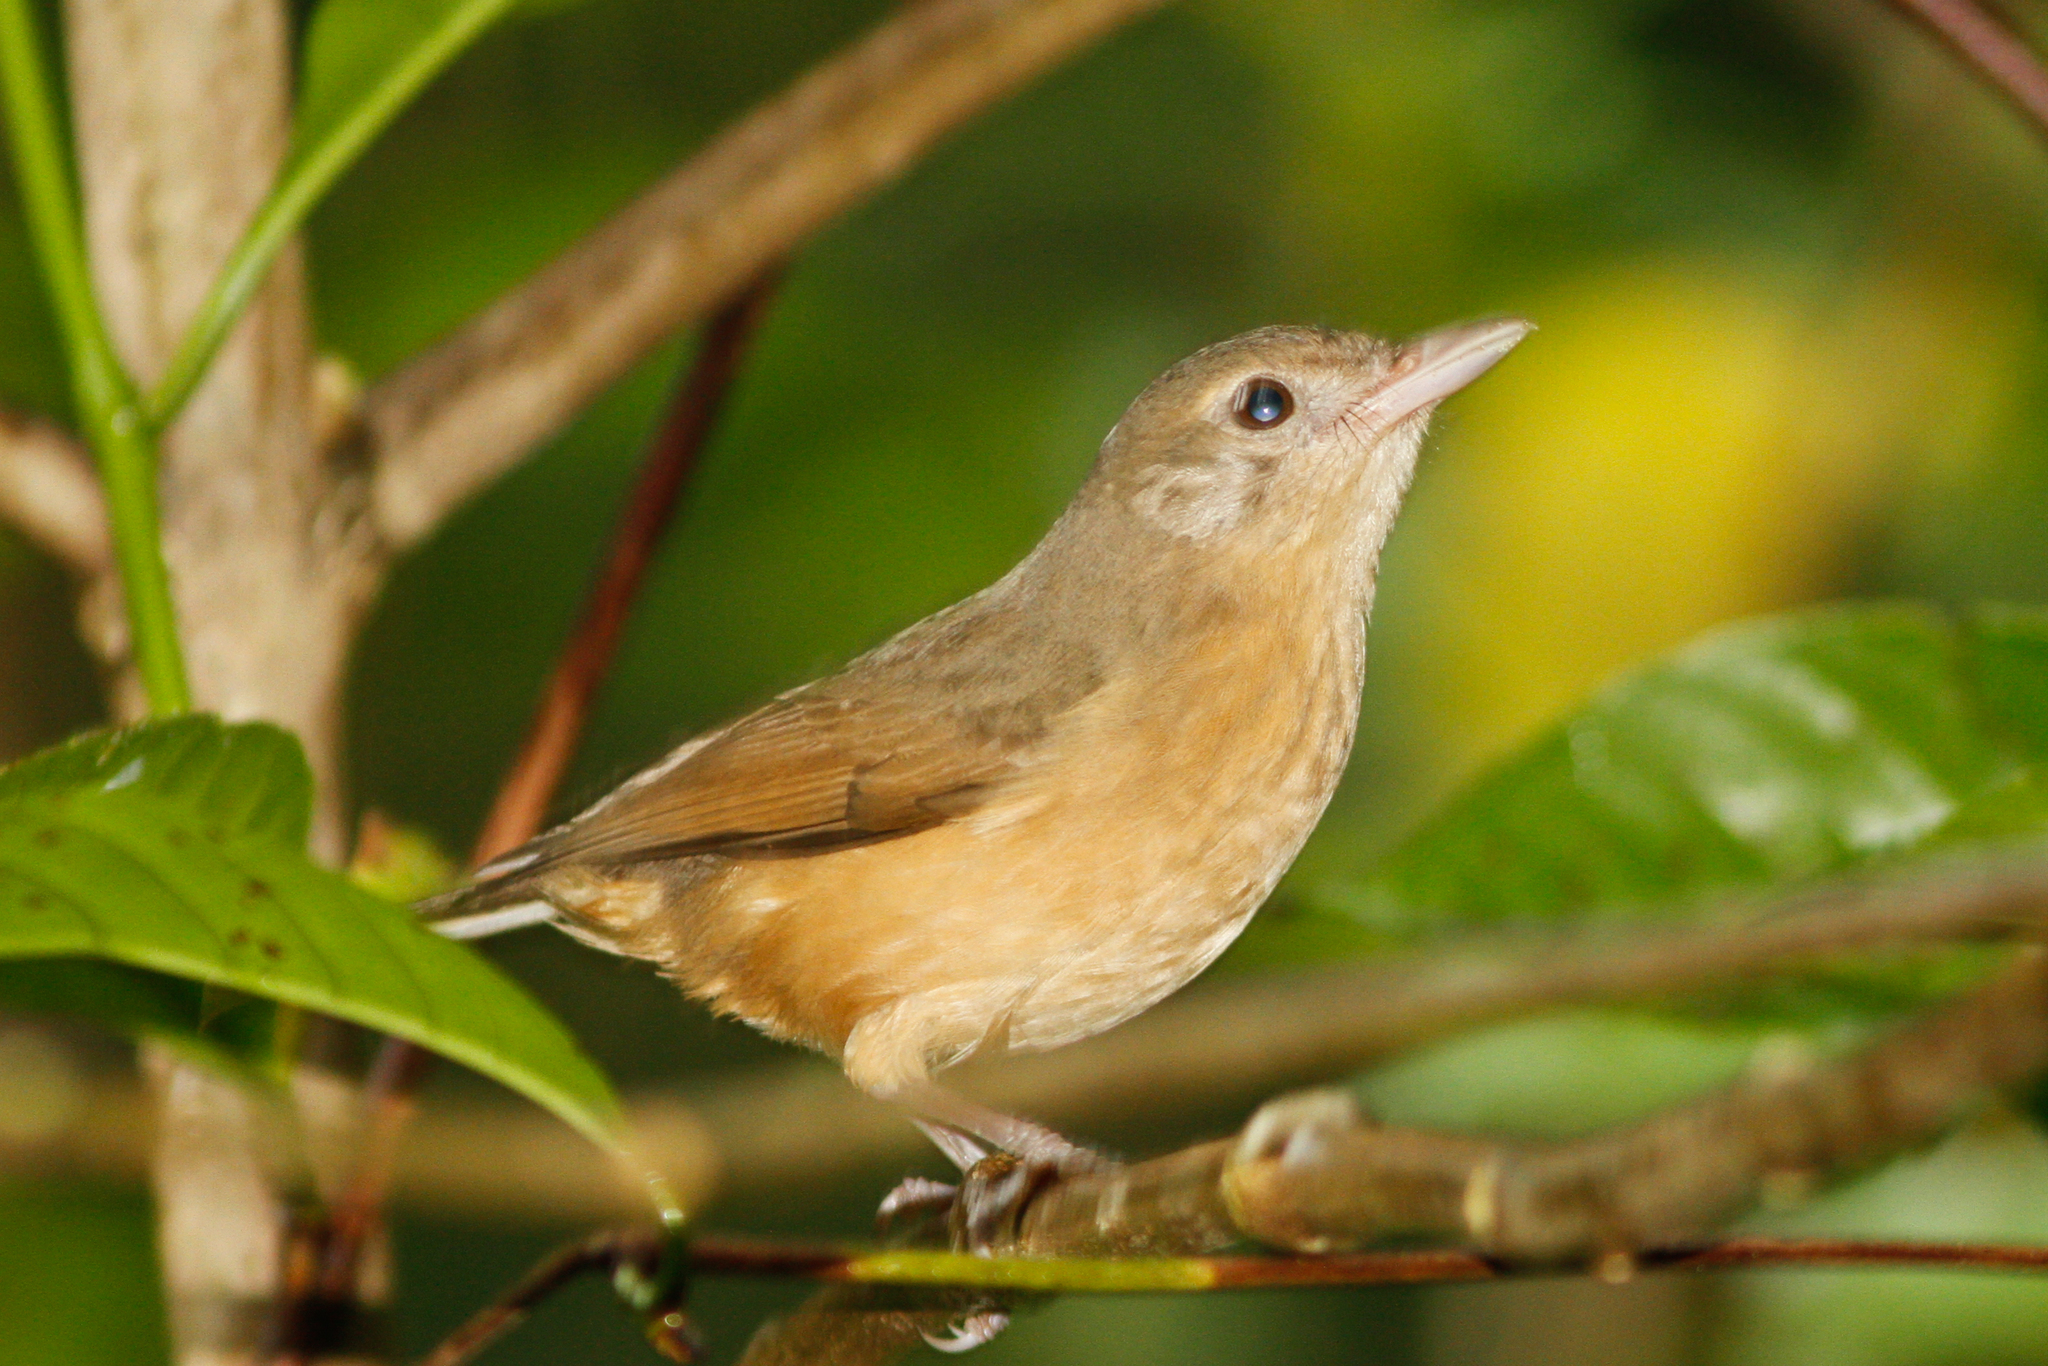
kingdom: Animalia
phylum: Chordata
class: Aves
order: Passeriformes
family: Pachycephalidae
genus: Colluricincla
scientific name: Colluricincla rufogaster
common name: Rufous shrikethrush
